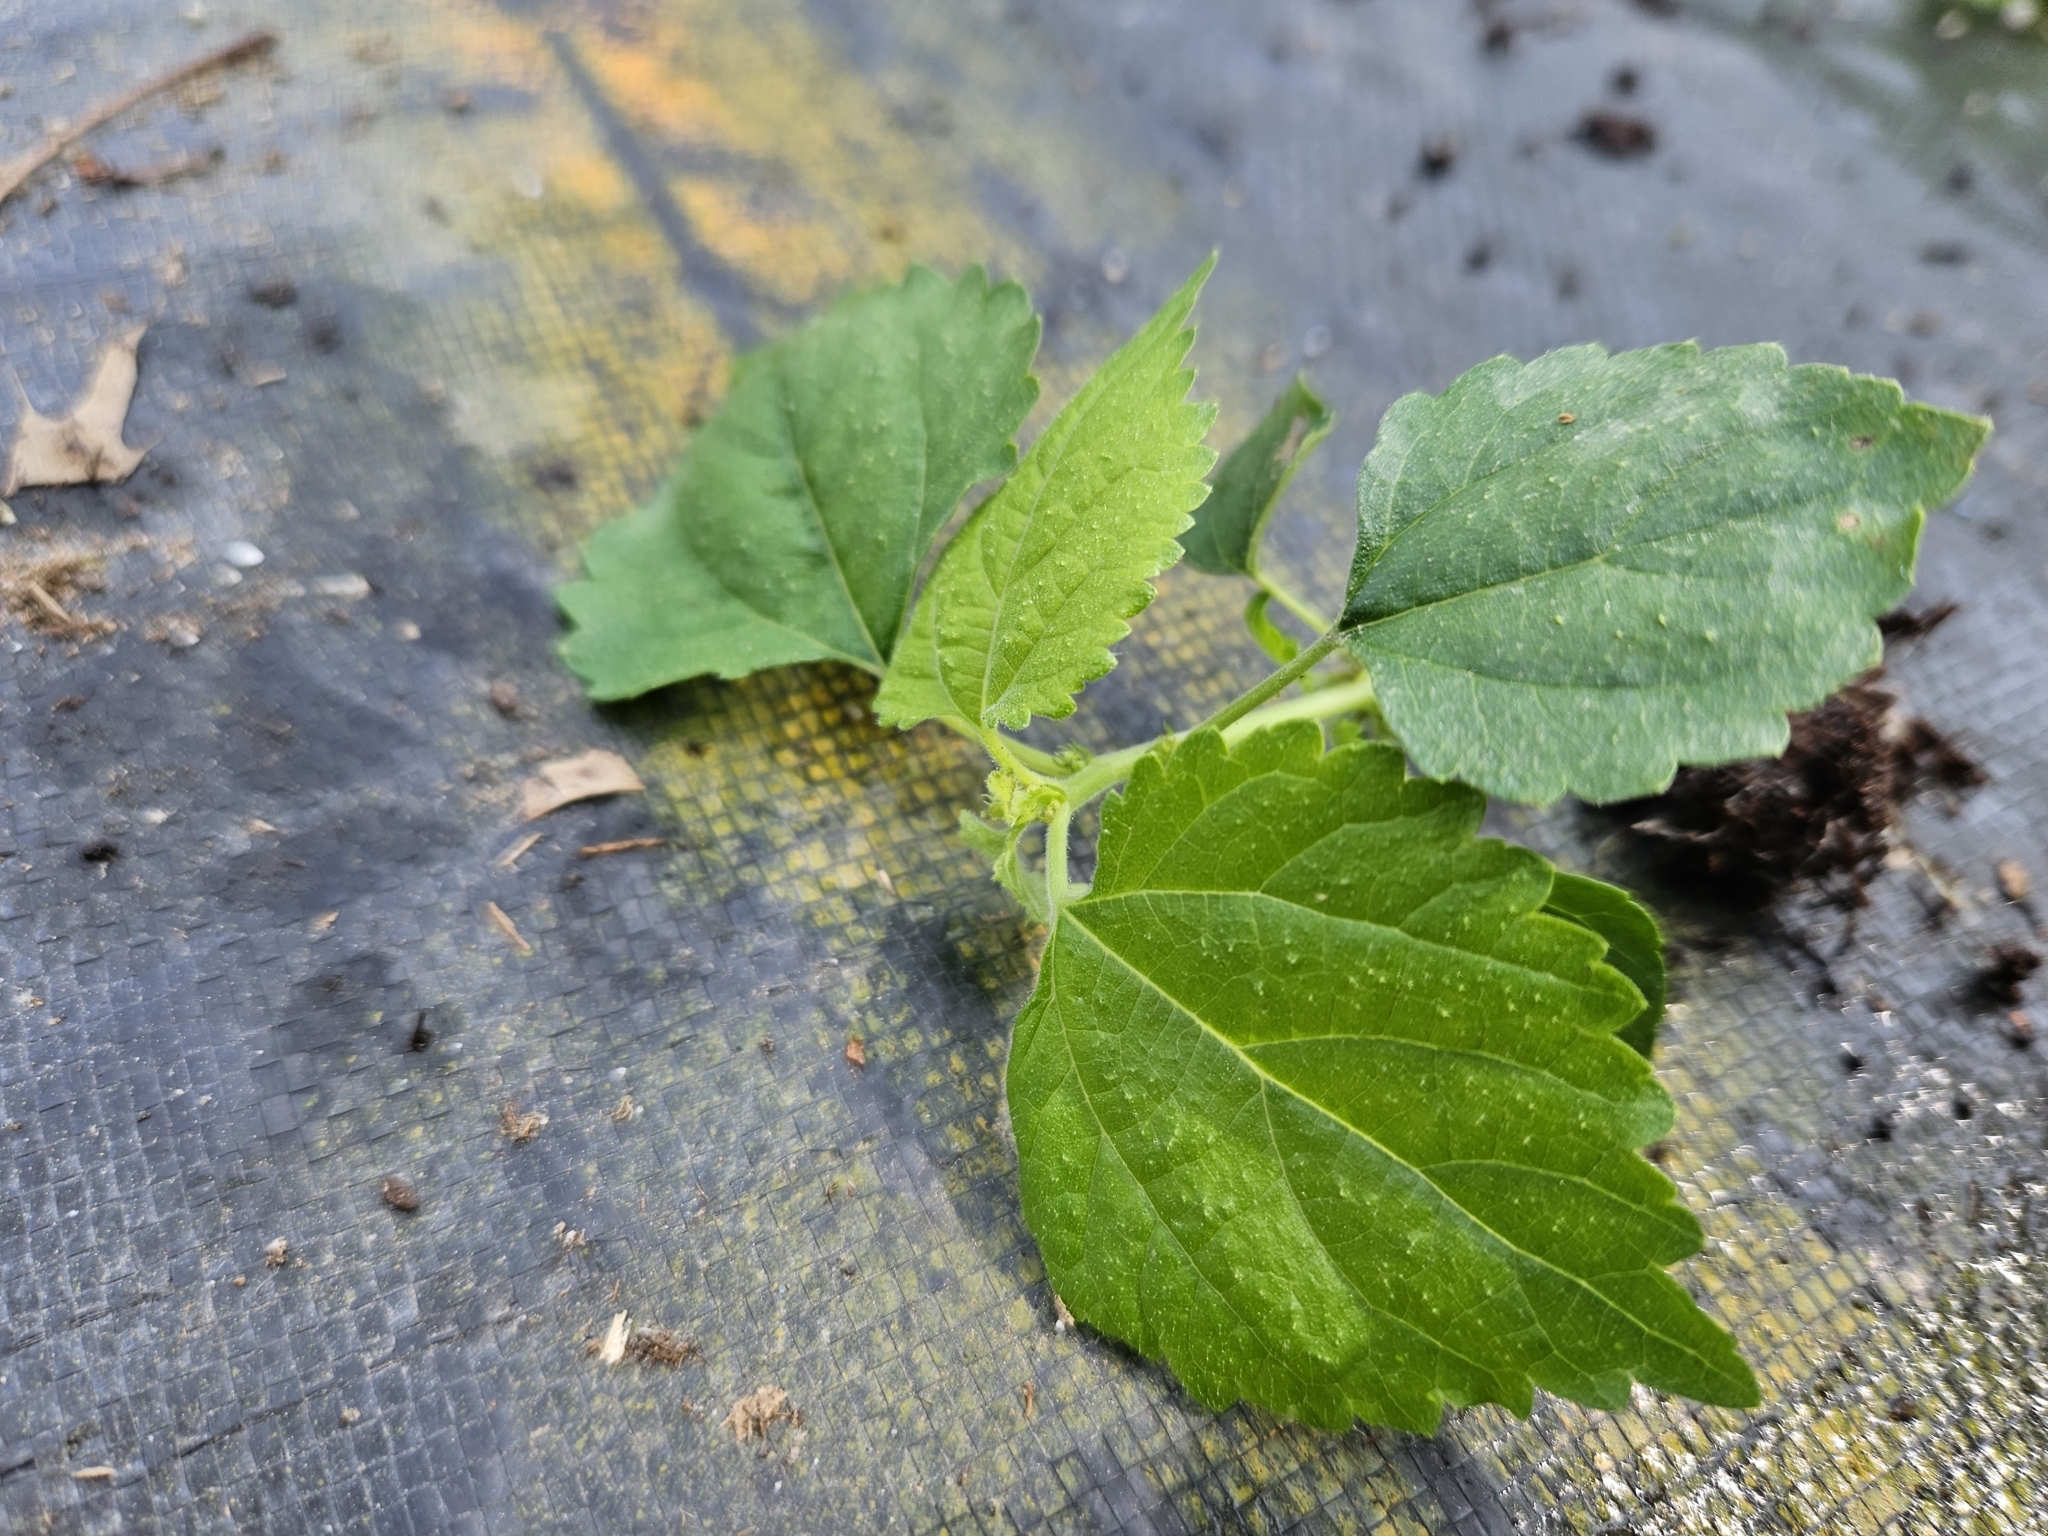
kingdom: Plantae
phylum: Tracheophyta
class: Magnoliopsida
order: Rosales
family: Moraceae
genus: Fatoua
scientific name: Fatoua villosa
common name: Hairy crabweed
